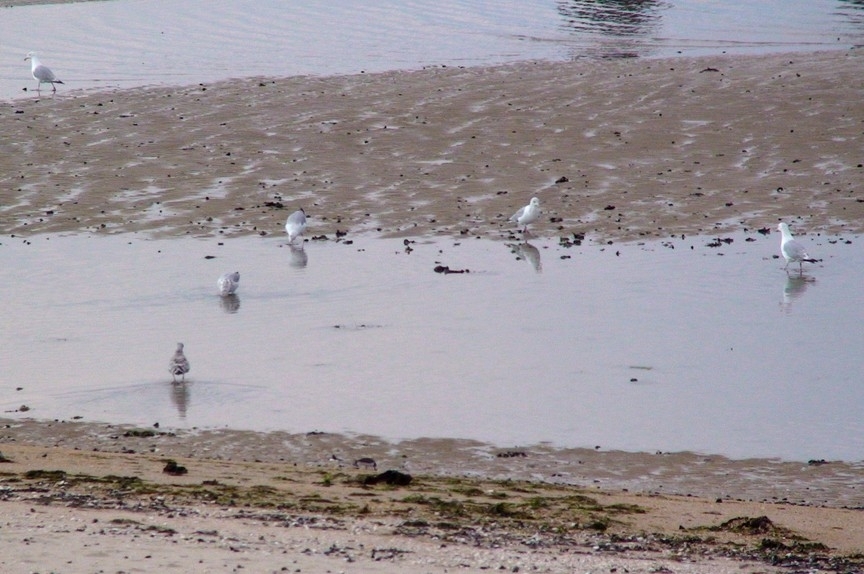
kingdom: Animalia
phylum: Chordata
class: Aves
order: Charadriiformes
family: Laridae
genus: Larus
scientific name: Larus argentatus
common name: Herring gull
